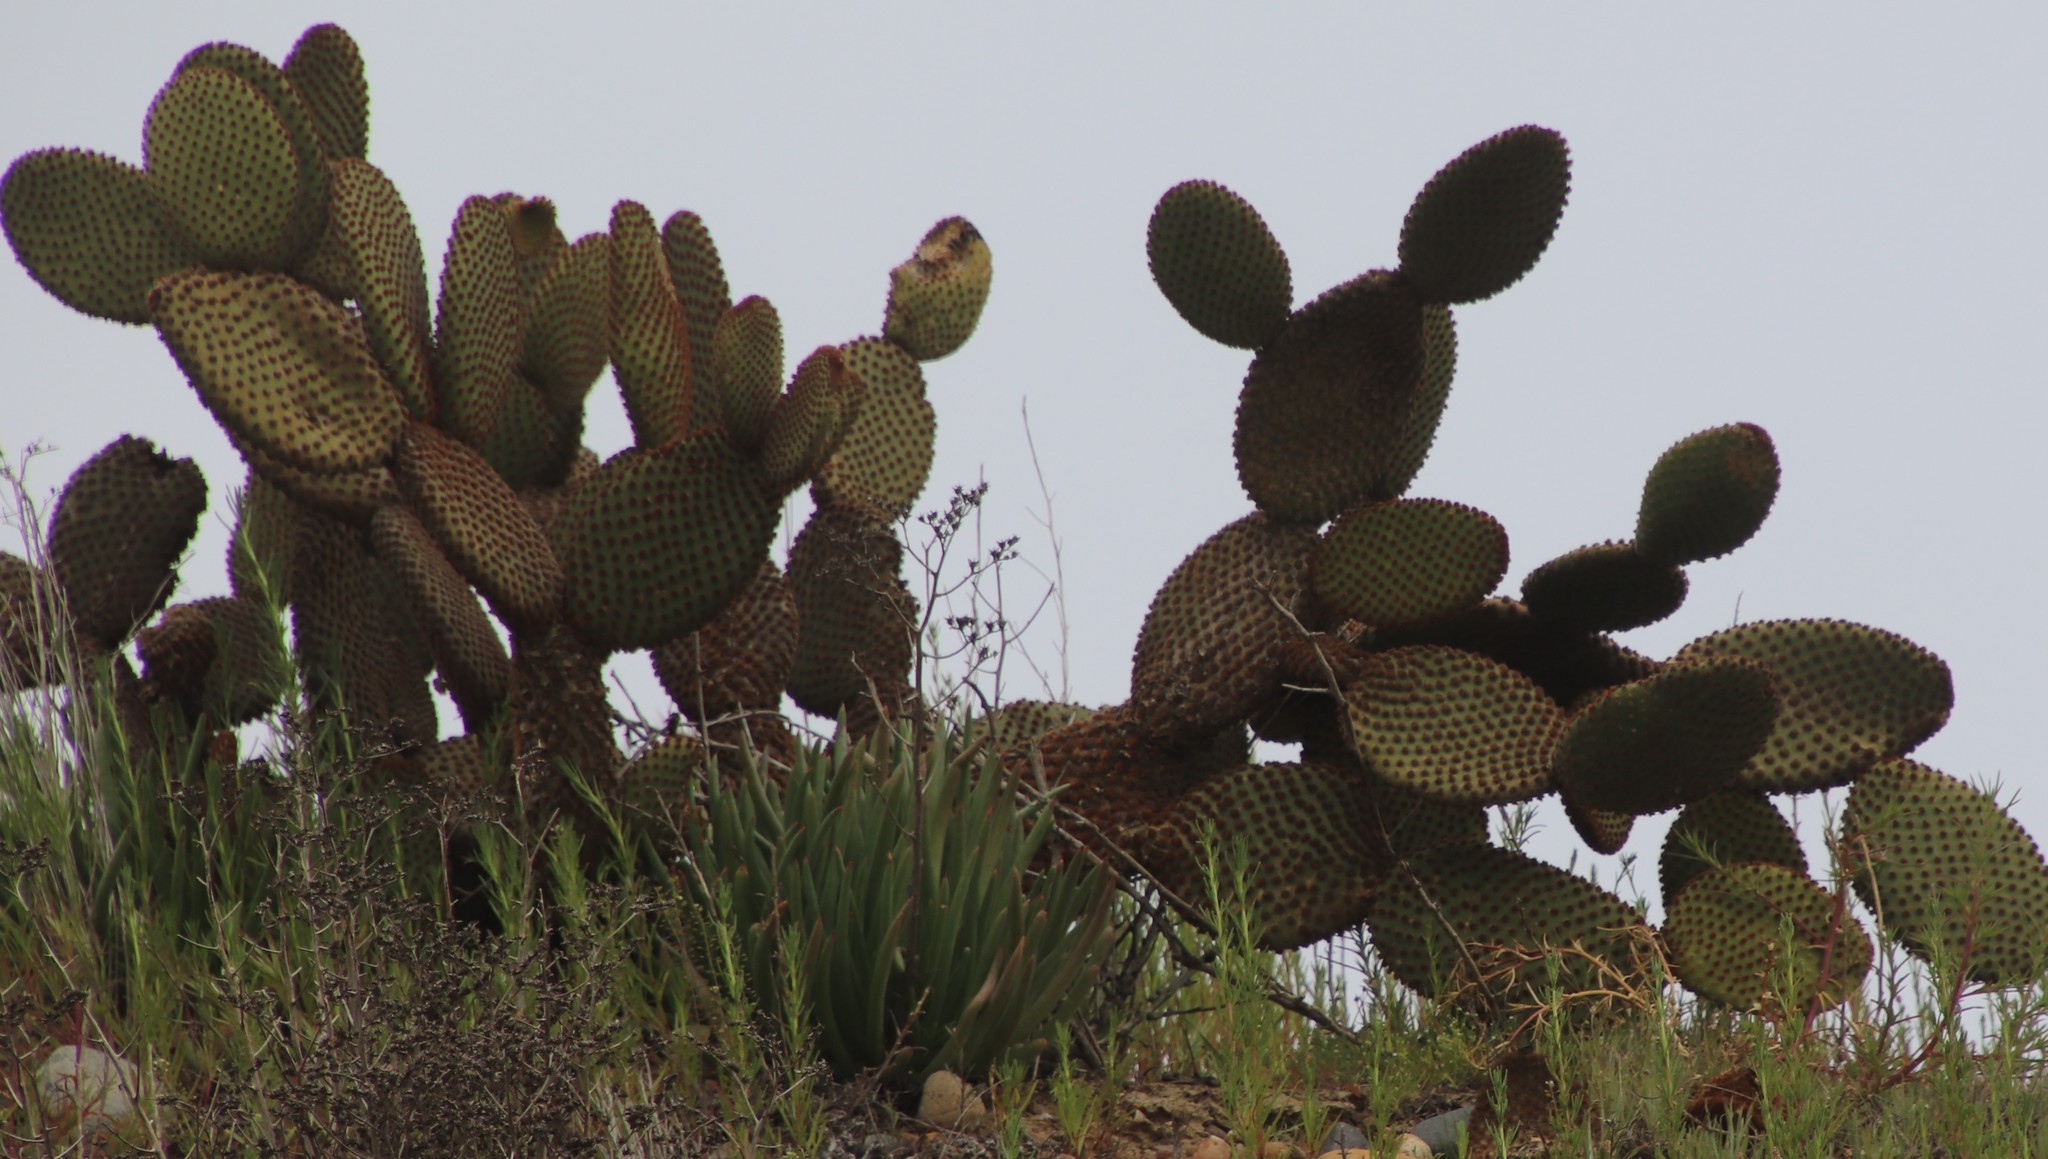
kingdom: Plantae
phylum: Tracheophyta
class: Magnoliopsida
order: Caryophyllales
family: Cactaceae
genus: Opuntia
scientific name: Opuntia microdasys
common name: Angel's-wings
